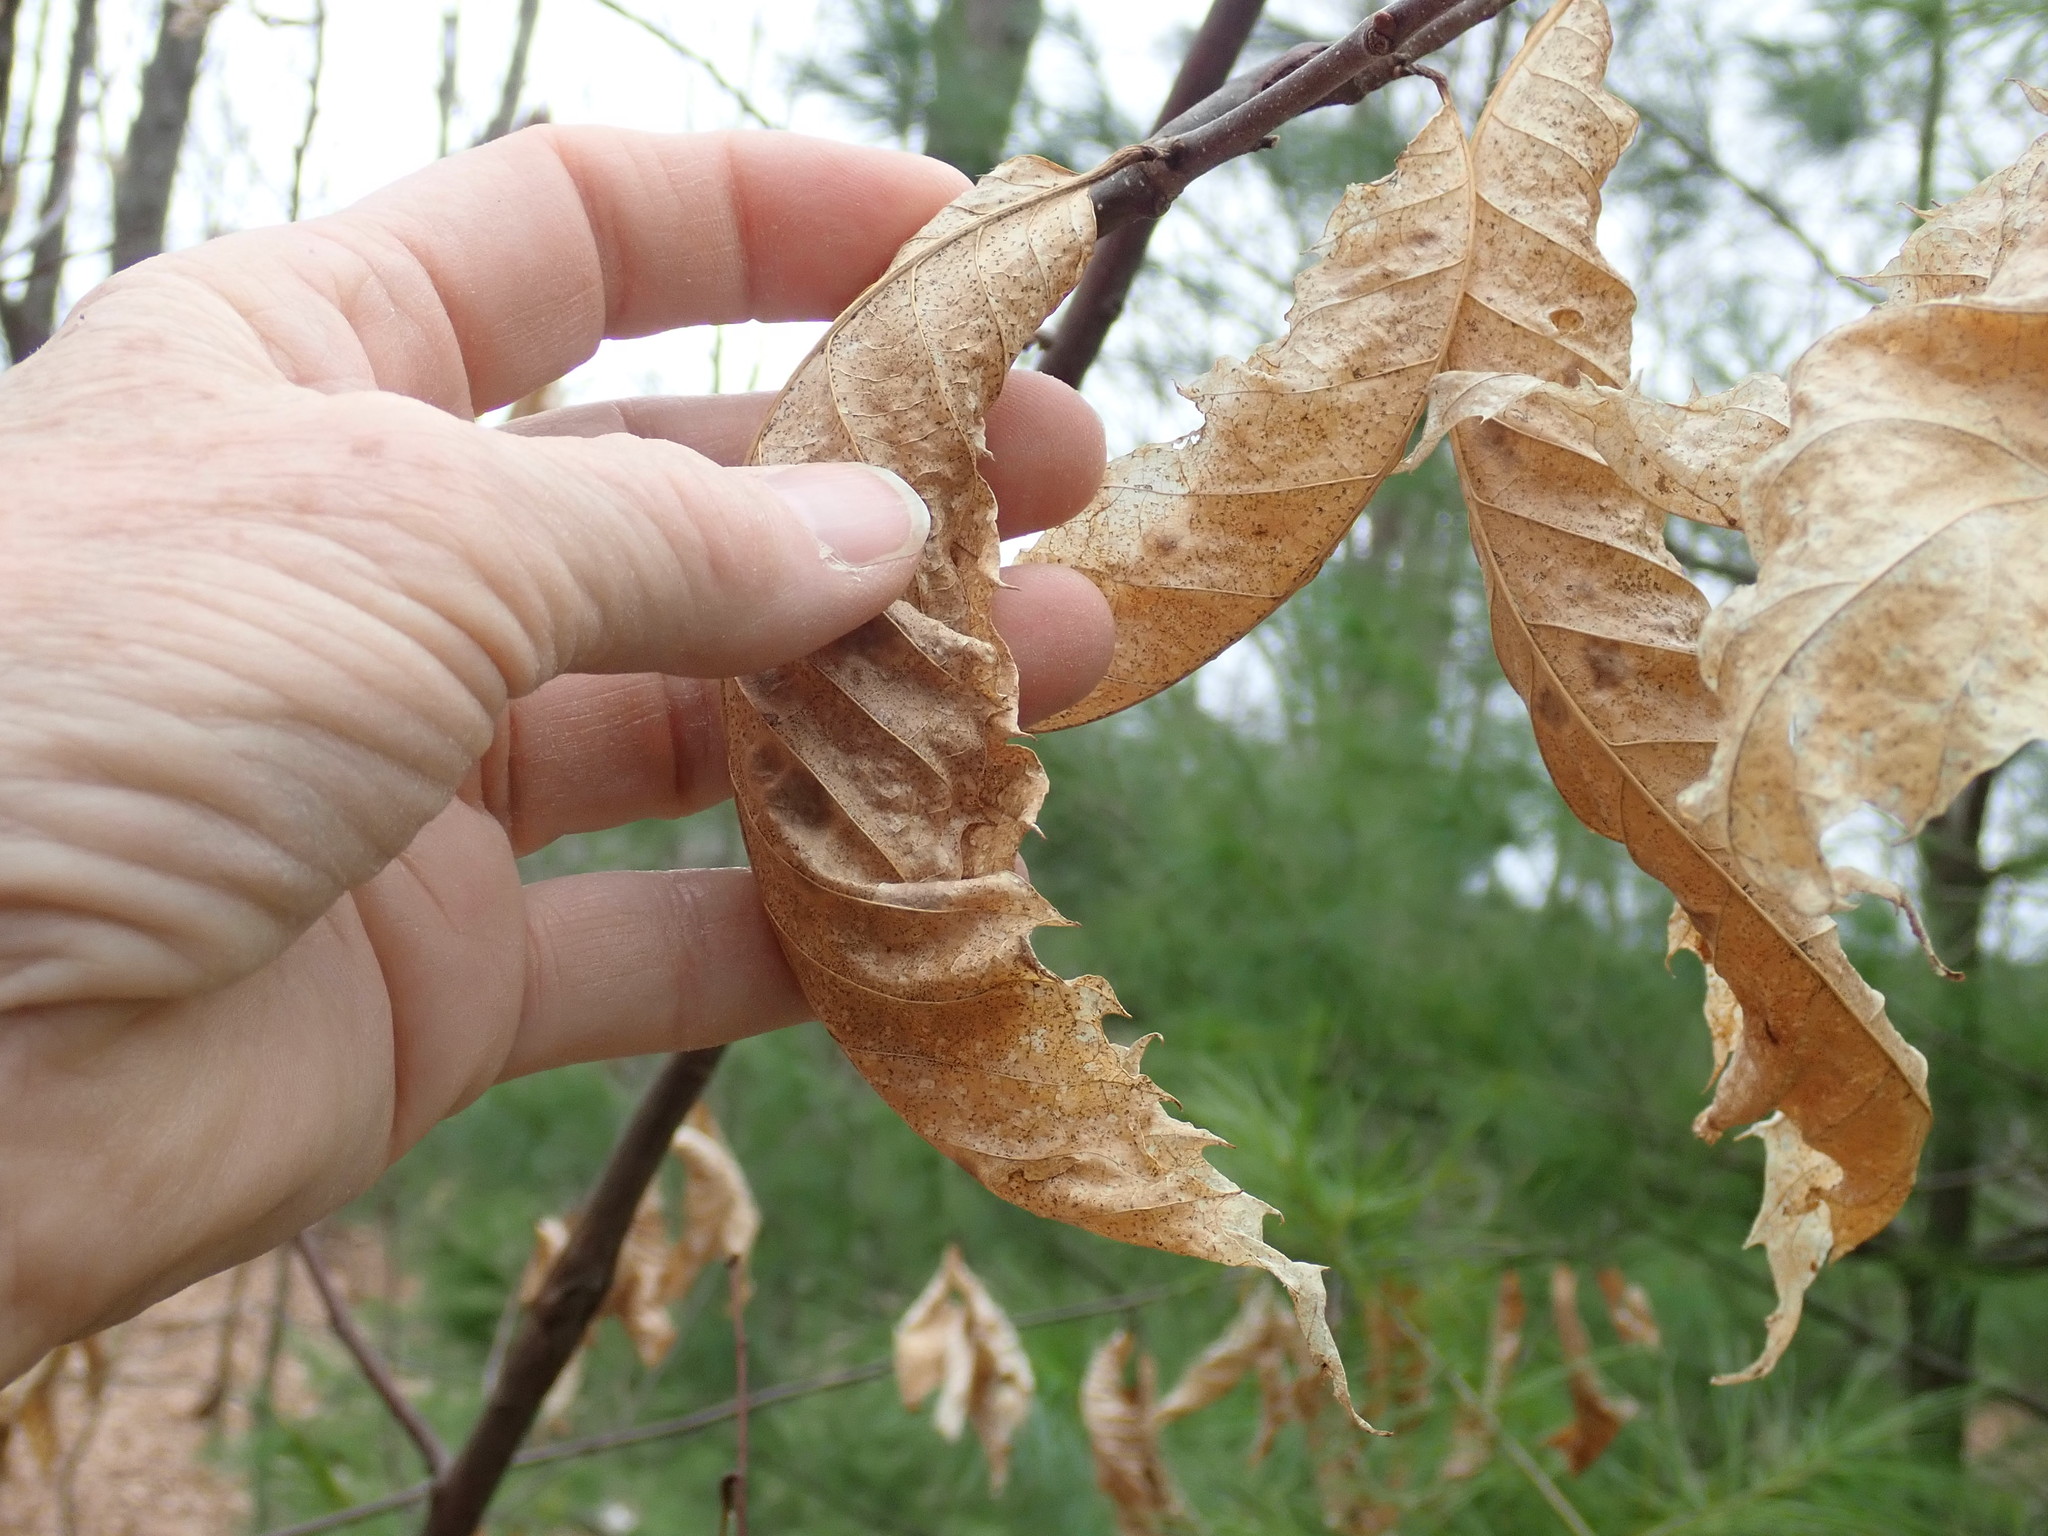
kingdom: Plantae
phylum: Tracheophyta
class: Magnoliopsida
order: Fagales
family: Fagaceae
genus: Castanea
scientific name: Castanea dentata
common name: American chestnut
